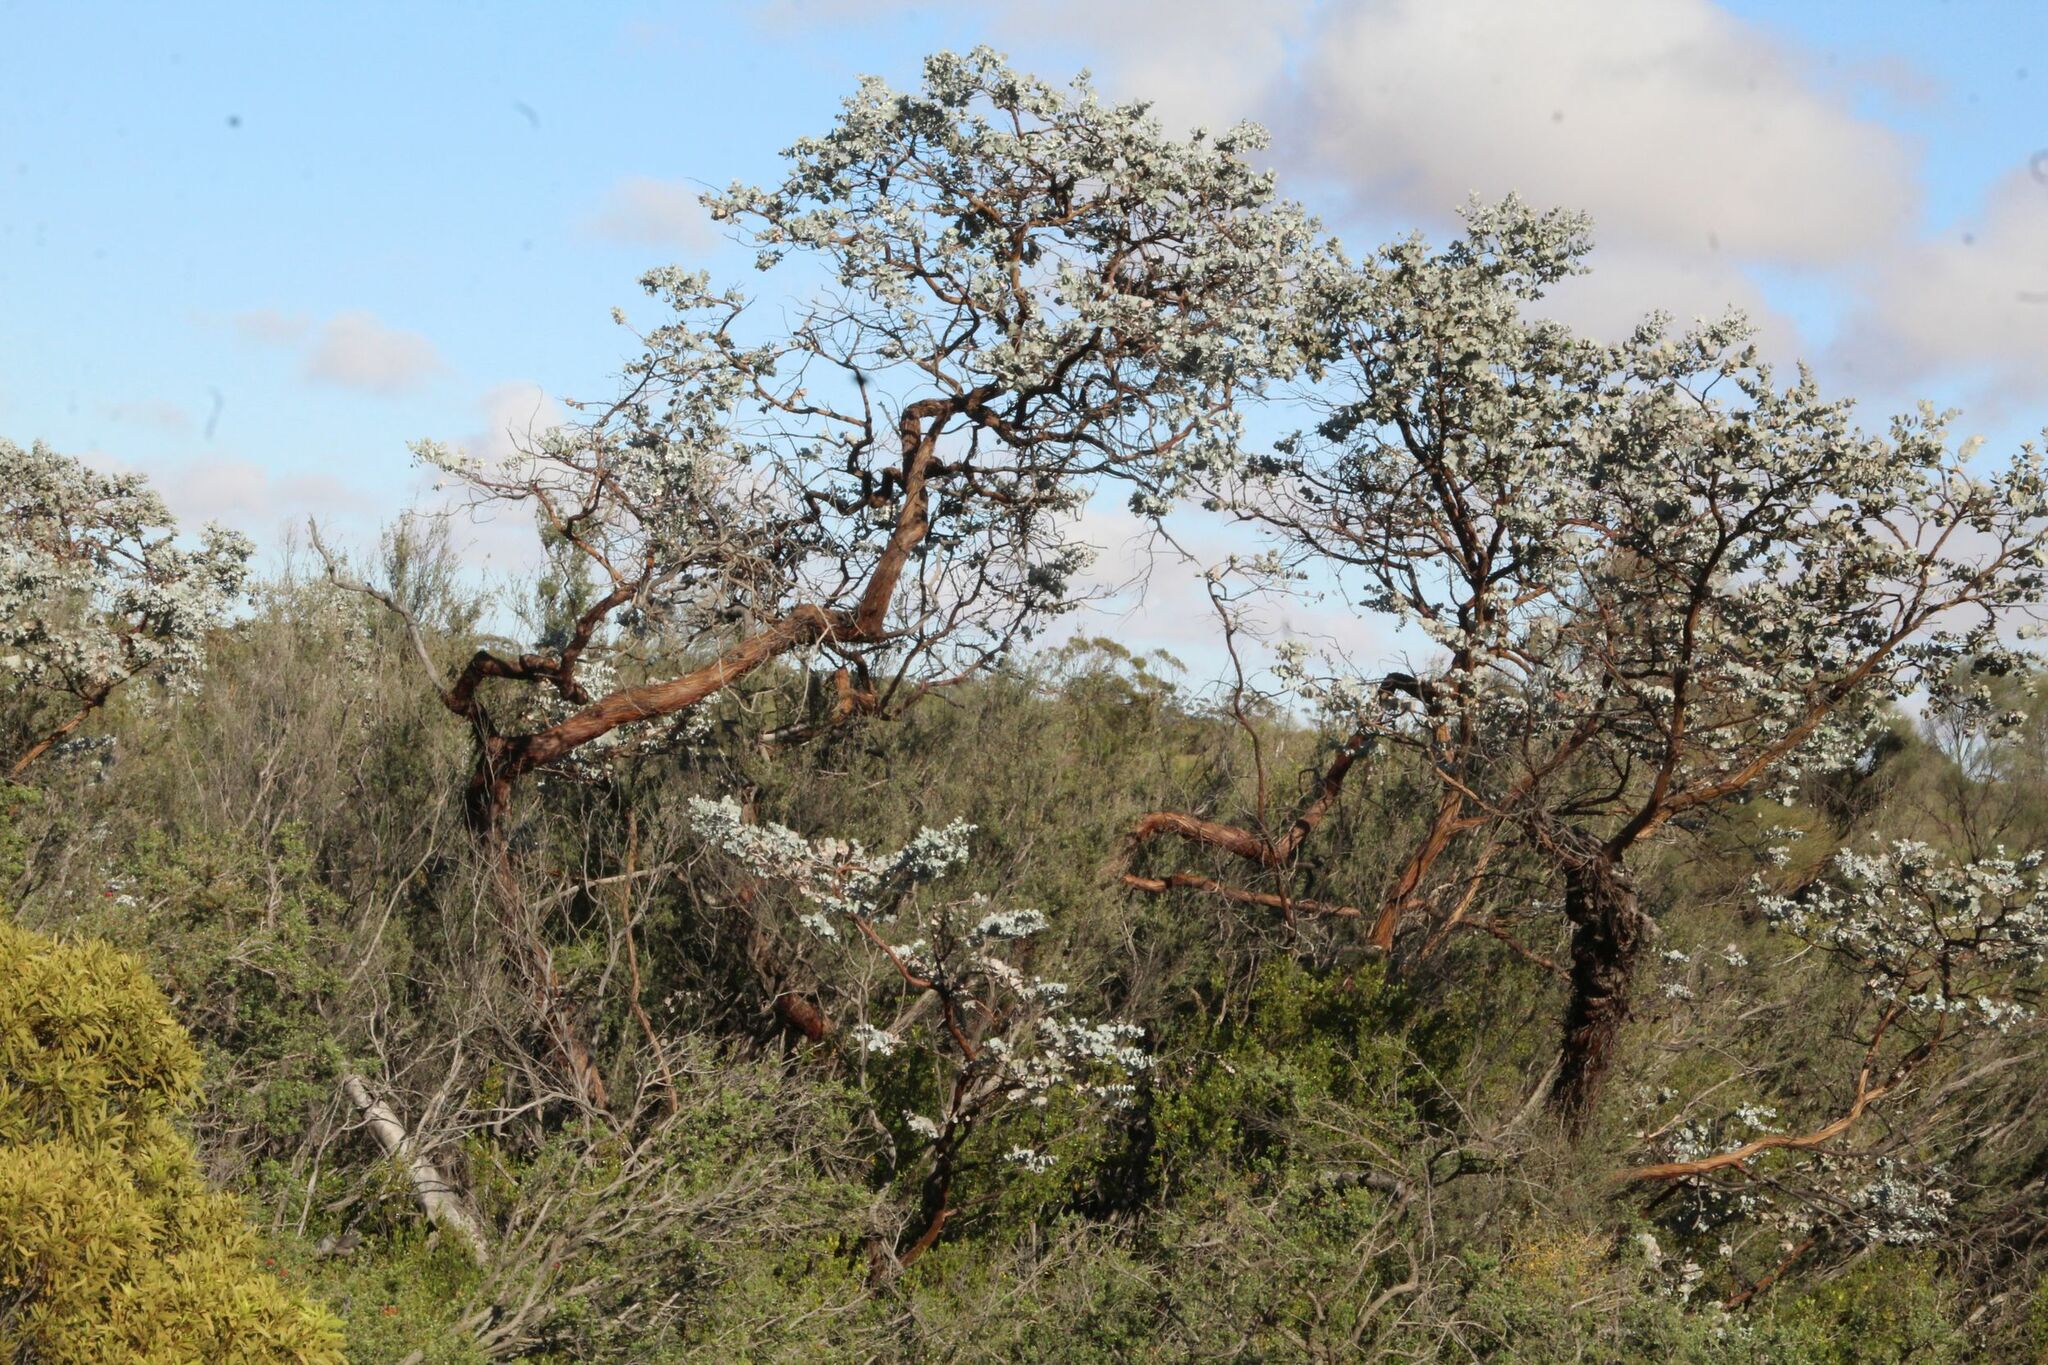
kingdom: Plantae
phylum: Tracheophyta
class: Magnoliopsida
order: Myrtales
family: Myrtaceae
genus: Eucalyptus
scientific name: Eucalyptus crucis
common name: Southern cross silver mallee
